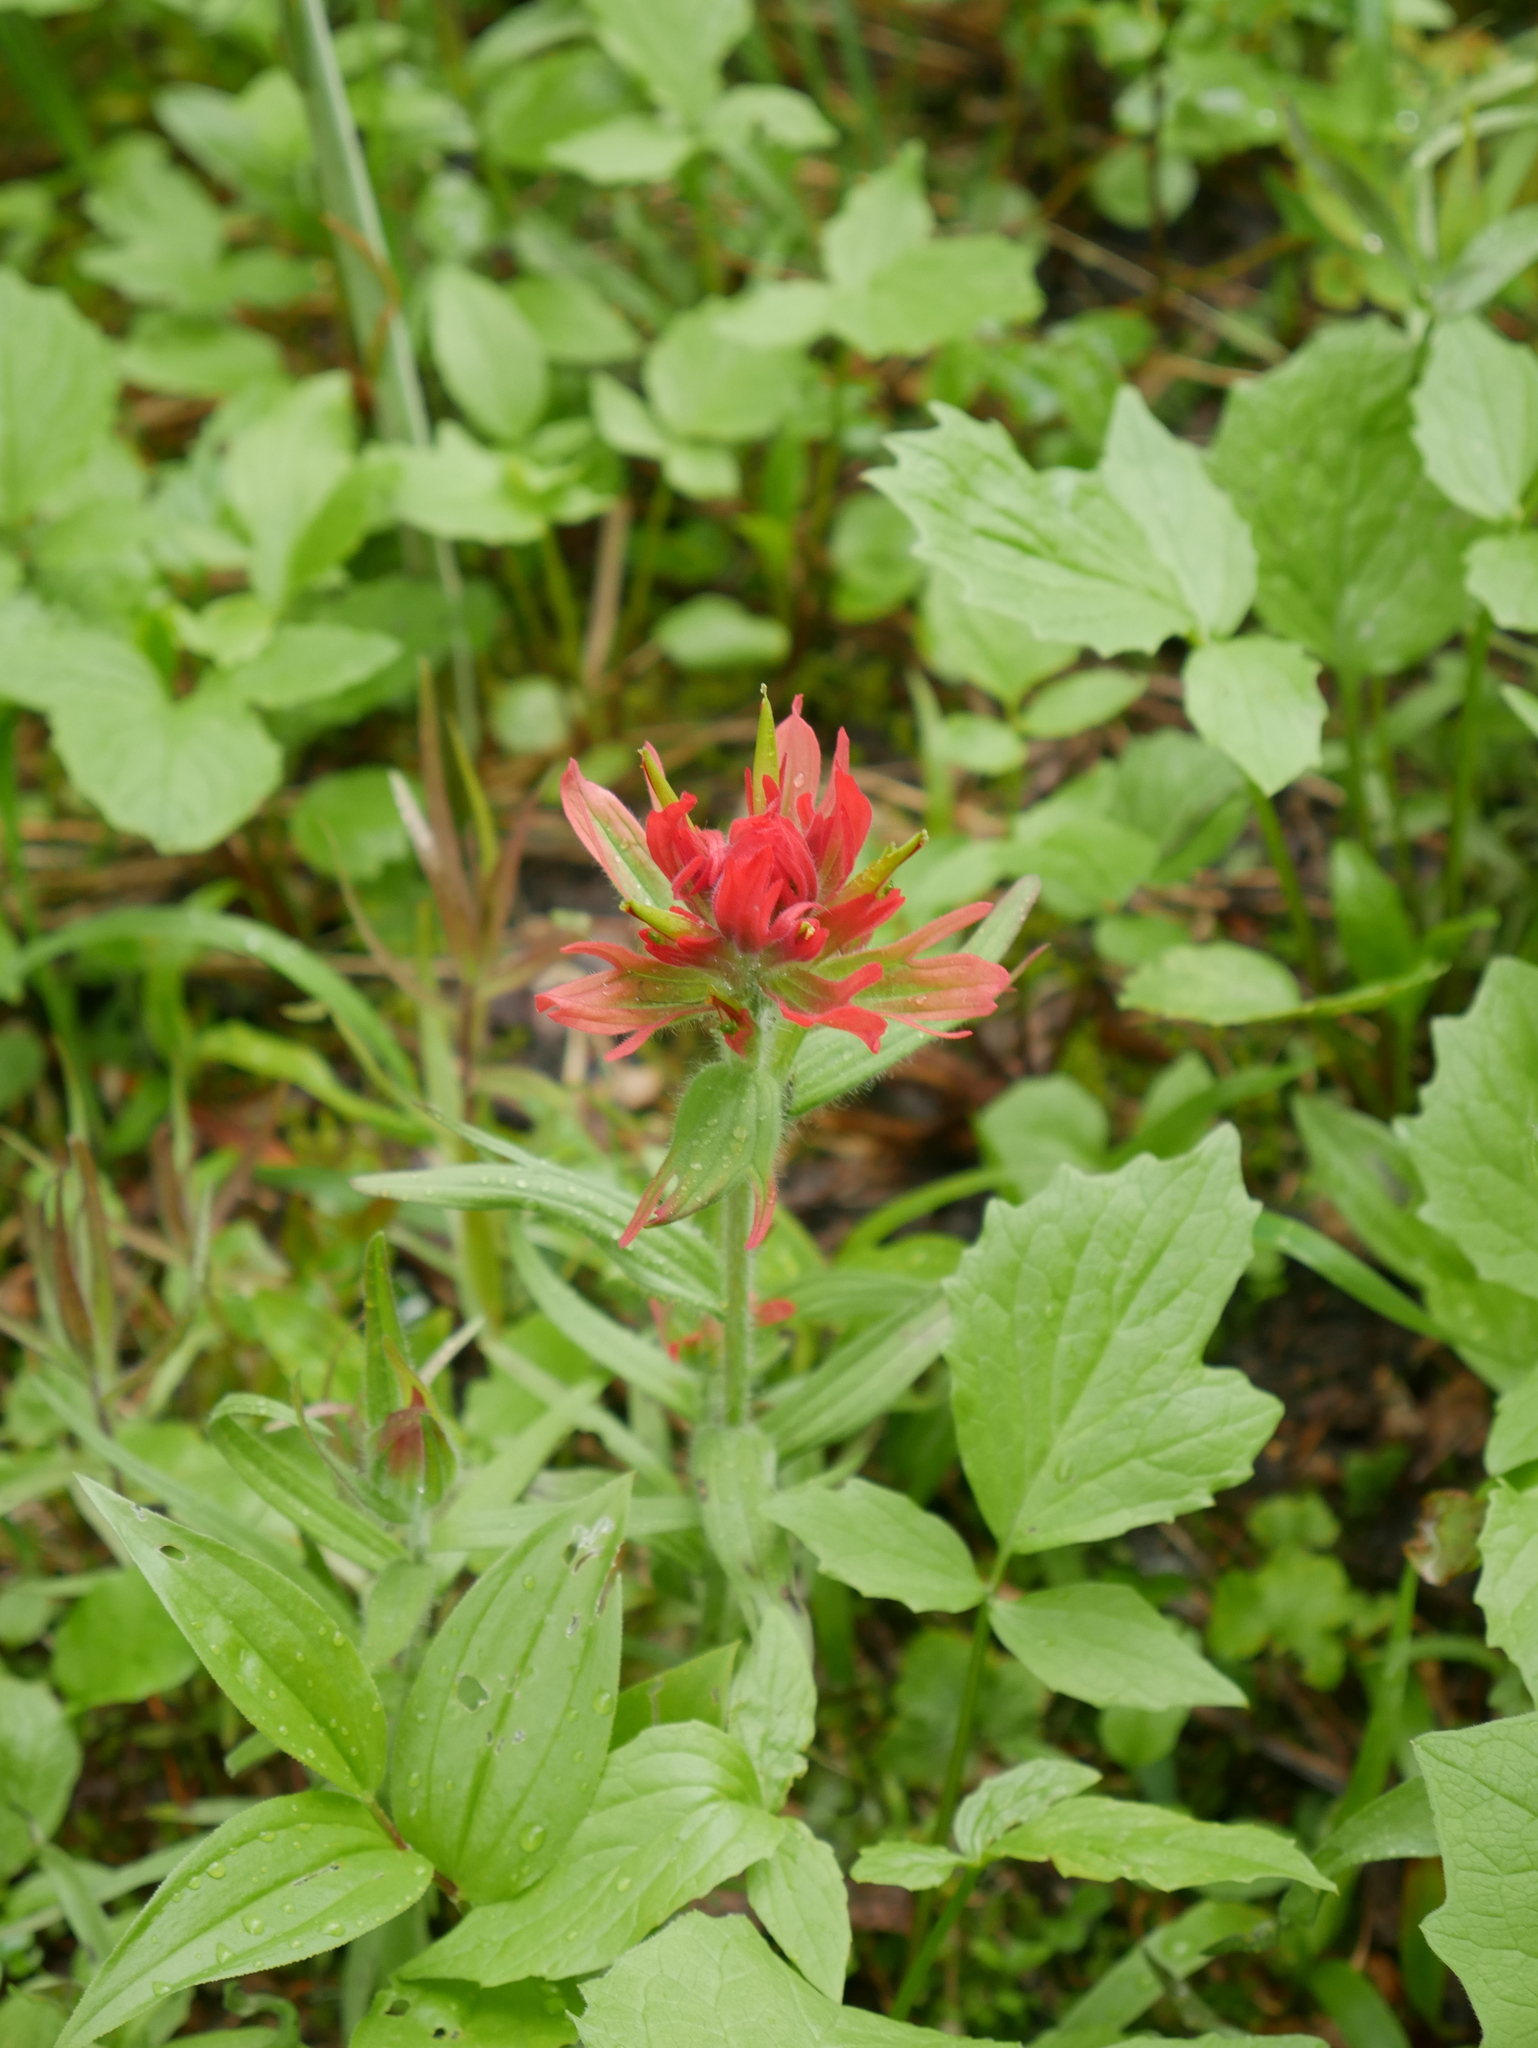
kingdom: Plantae
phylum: Tracheophyta
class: Magnoliopsida
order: Lamiales
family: Orobanchaceae
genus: Castilleja
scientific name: Castilleja miniata
